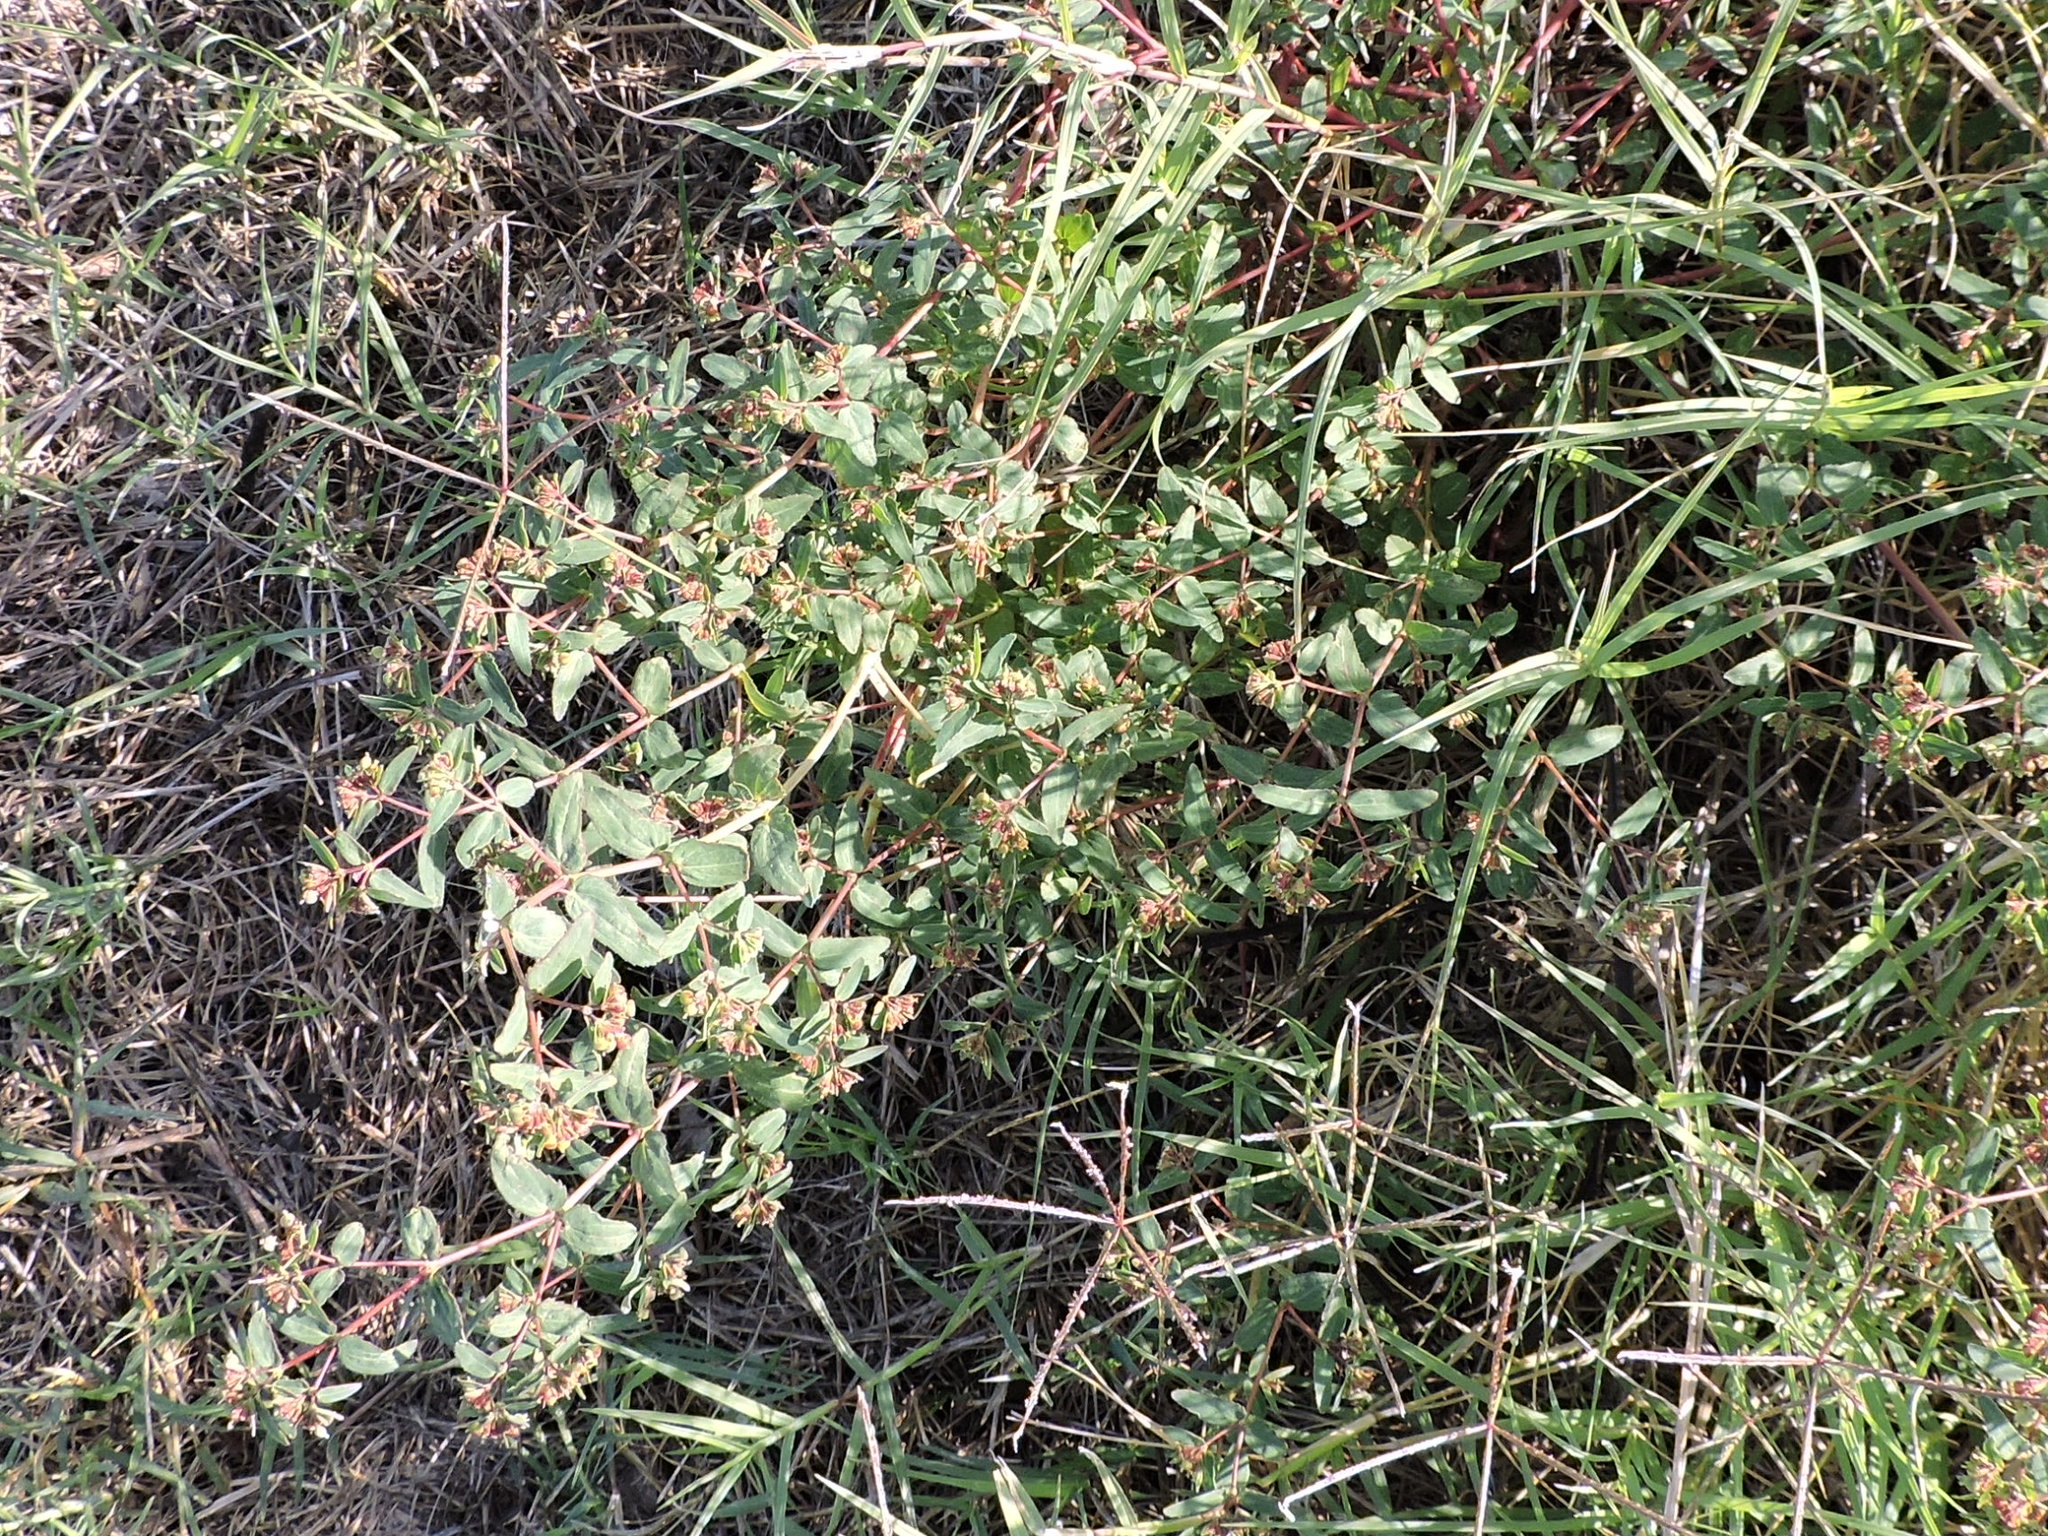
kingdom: Plantae
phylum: Tracheophyta
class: Magnoliopsida
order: Malpighiales
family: Euphorbiaceae
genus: Euphorbia
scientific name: Euphorbia nutans
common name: Eyebane
